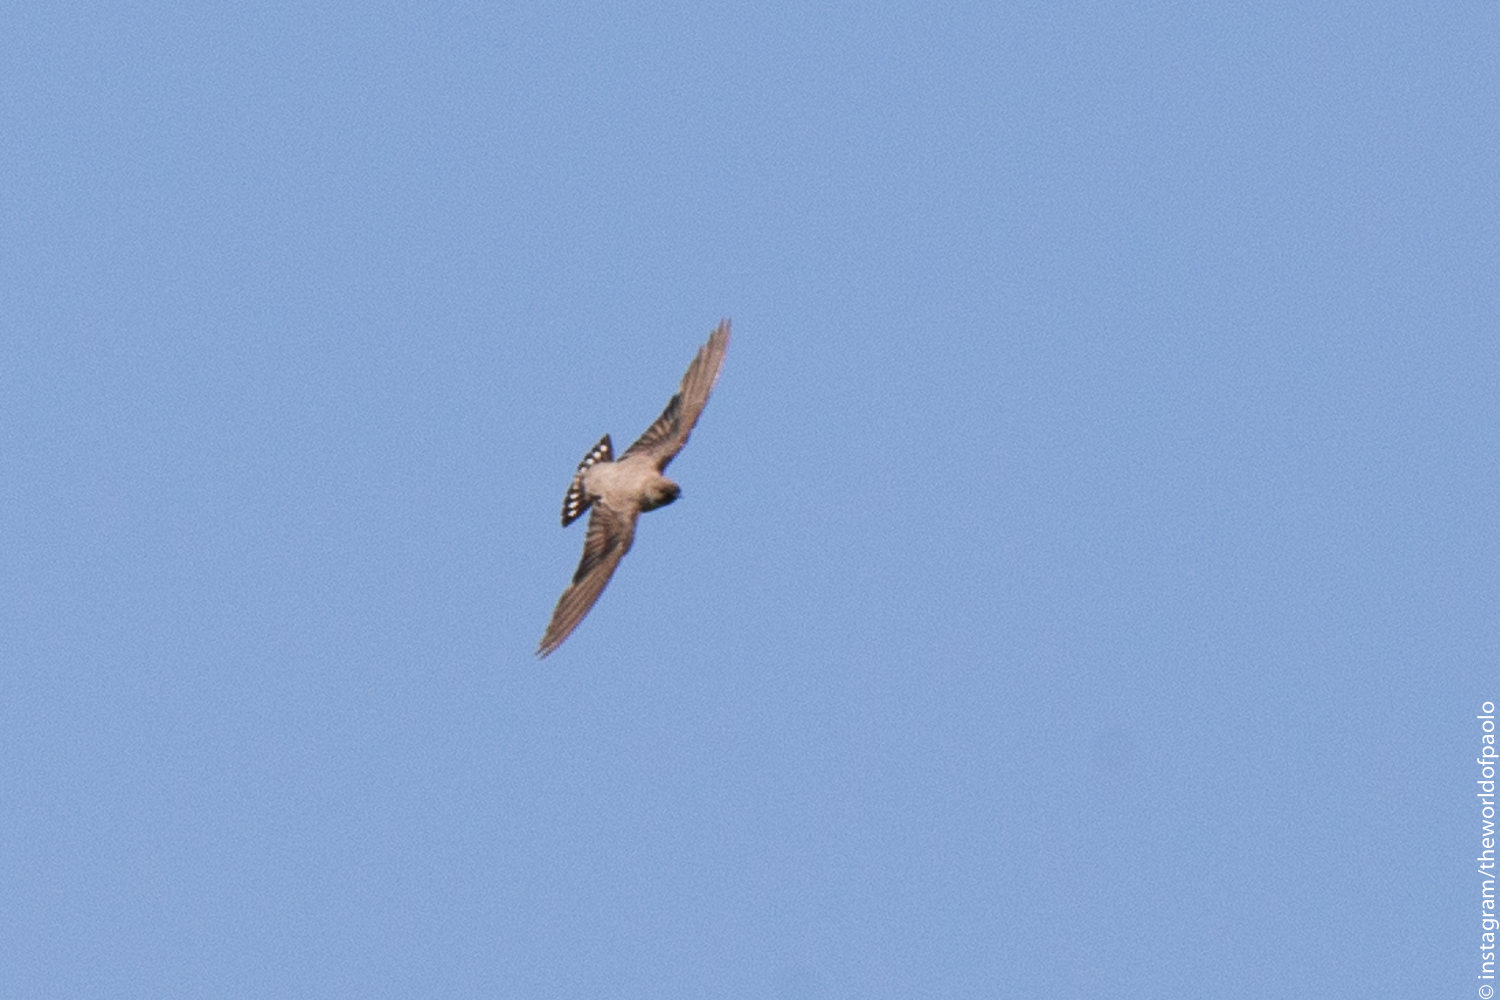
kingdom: Animalia
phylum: Chordata
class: Aves
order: Passeriformes
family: Hirundinidae
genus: Ptyonoprogne
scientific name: Ptyonoprogne rupestris
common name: Eurasian crag martin
